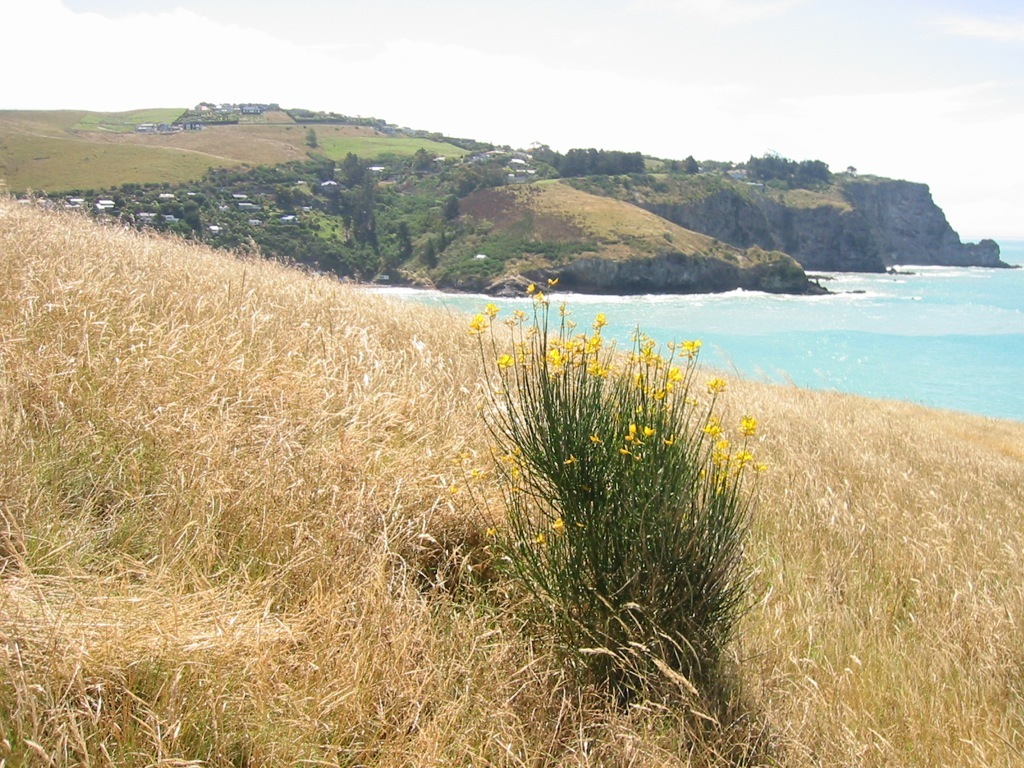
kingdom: Plantae
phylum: Tracheophyta
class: Magnoliopsida
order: Fabales
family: Fabaceae
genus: Cytisus
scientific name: Cytisus scoparius
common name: Scotch broom
